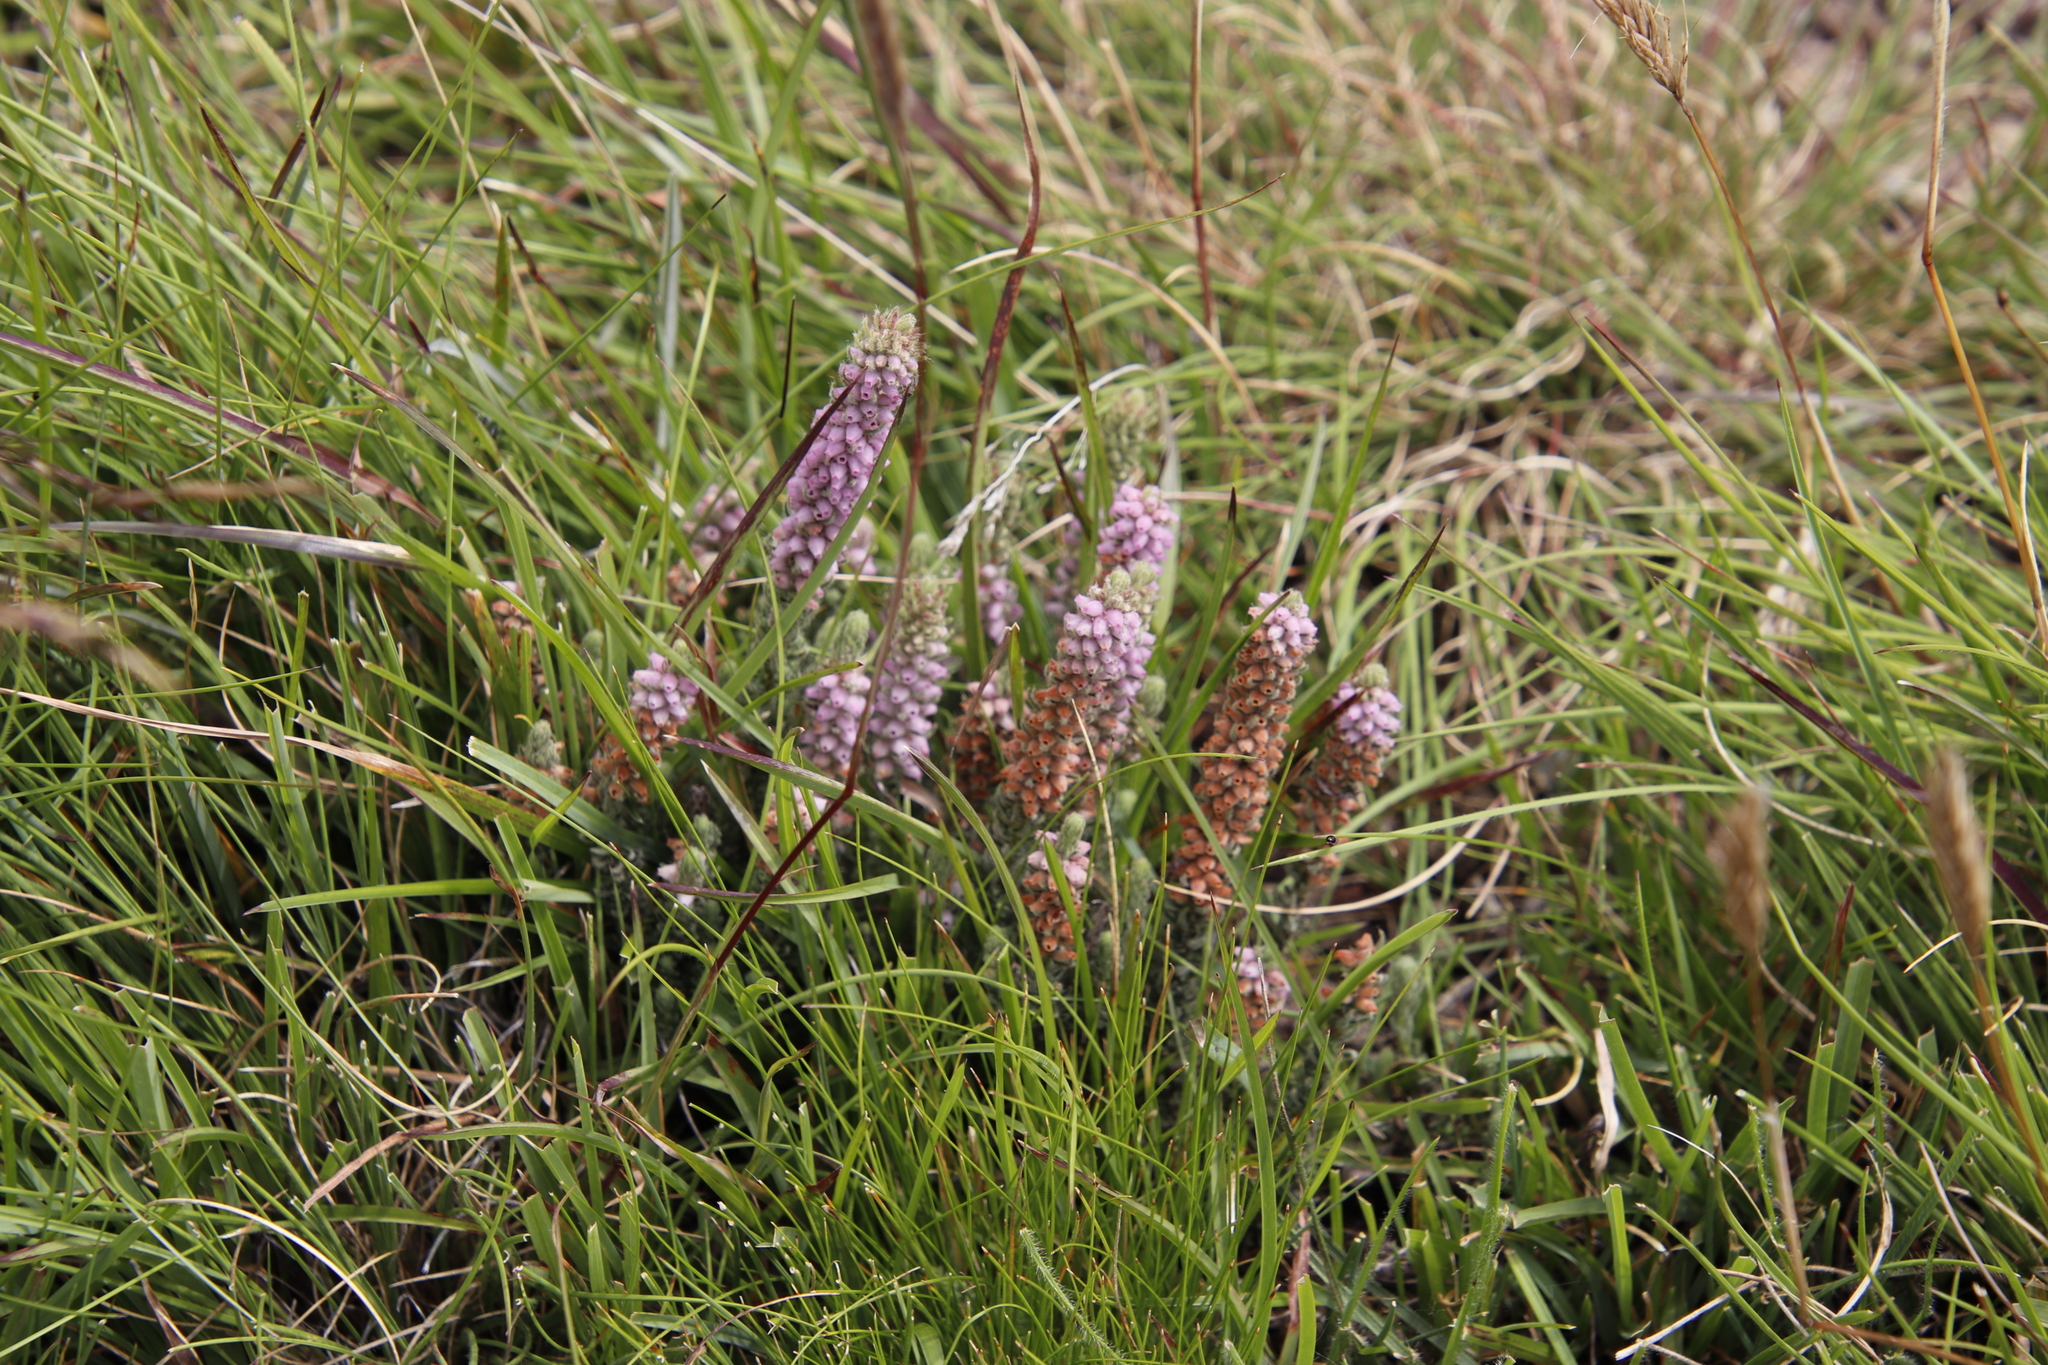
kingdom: Plantae
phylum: Tracheophyta
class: Magnoliopsida
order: Ericales
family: Ericaceae
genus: Erica
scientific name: Erica alopecurus
